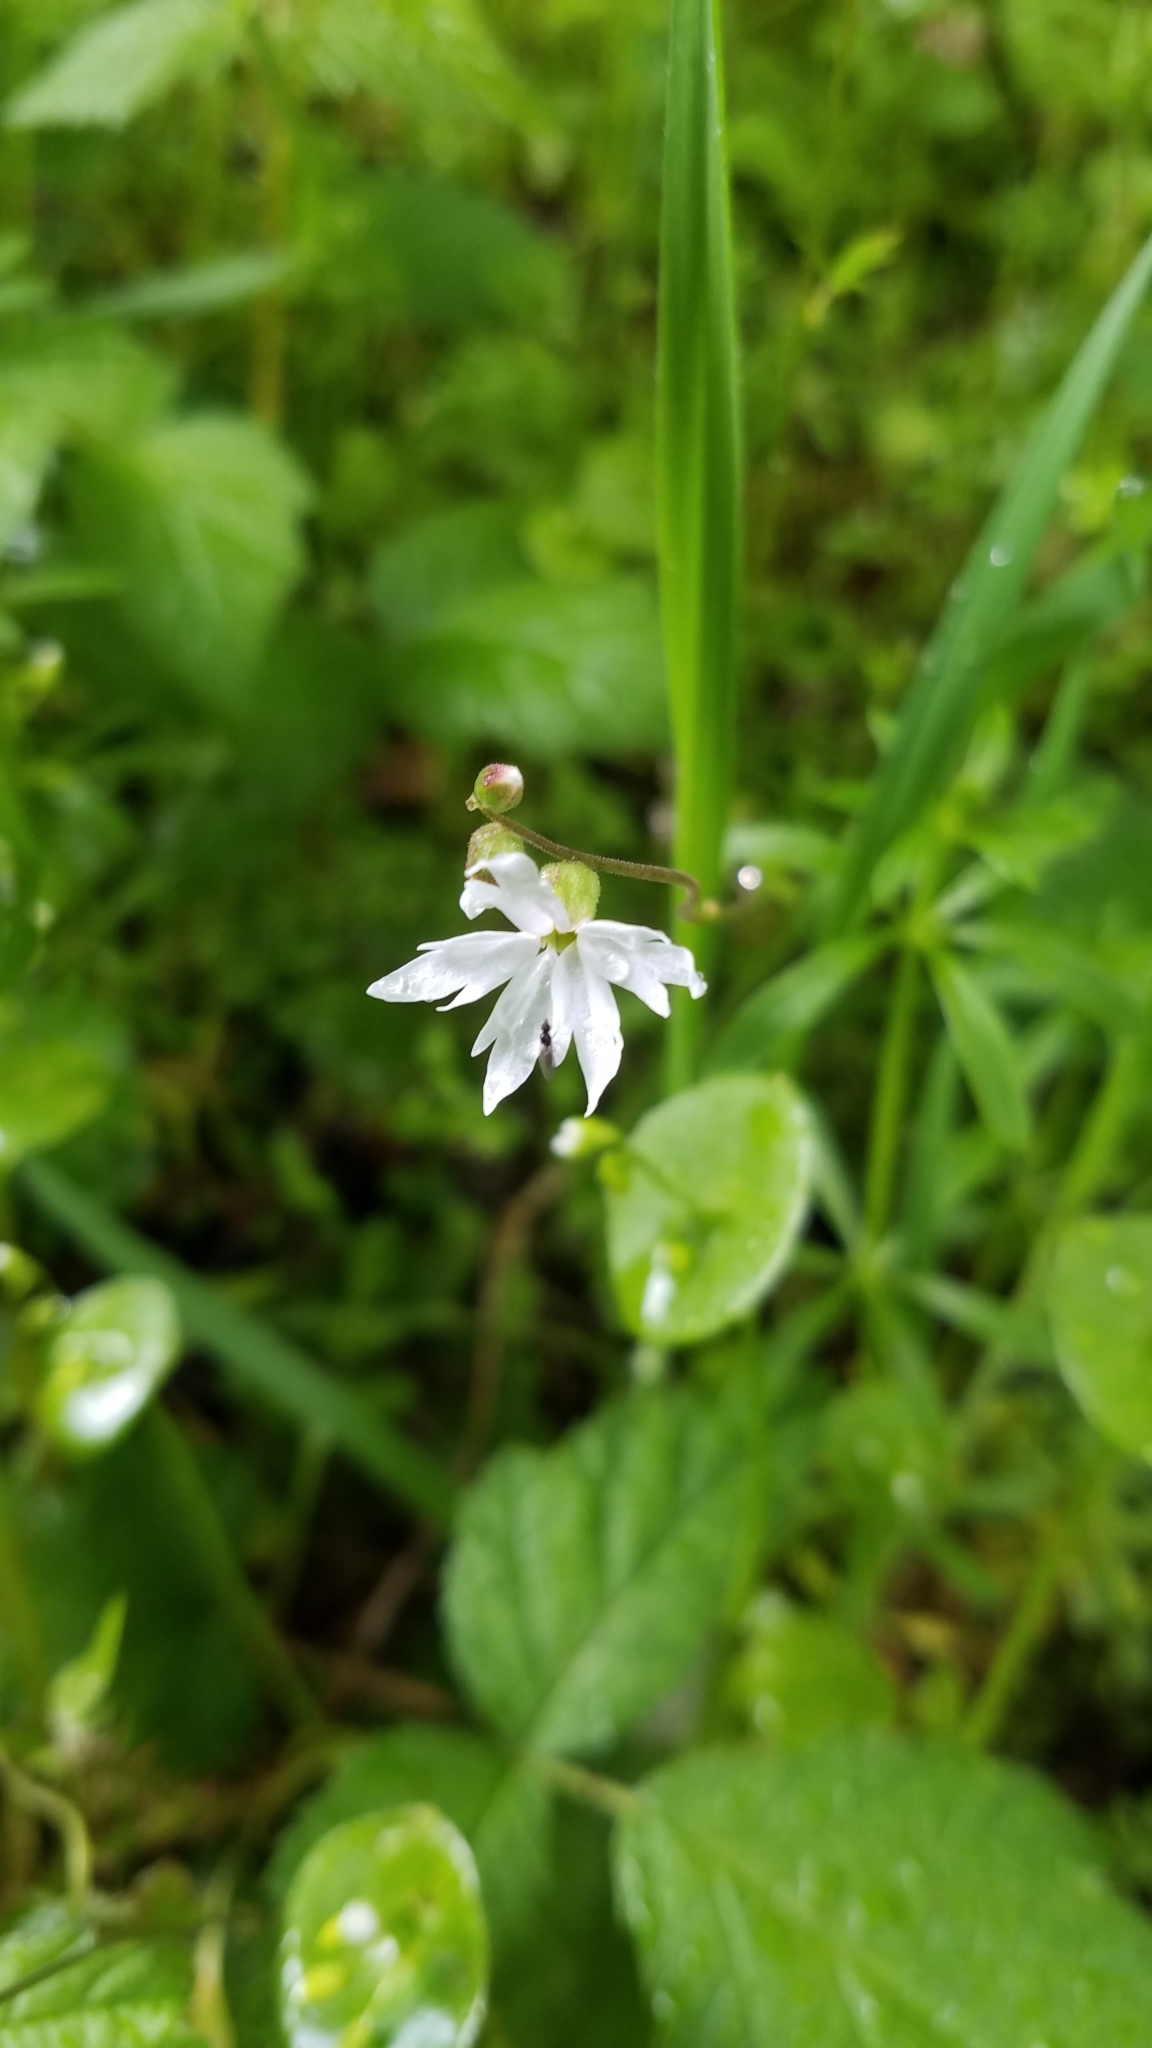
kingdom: Plantae
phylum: Tracheophyta
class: Magnoliopsida
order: Saxifragales
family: Saxifragaceae
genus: Lithophragma
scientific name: Lithophragma heterophyllum
